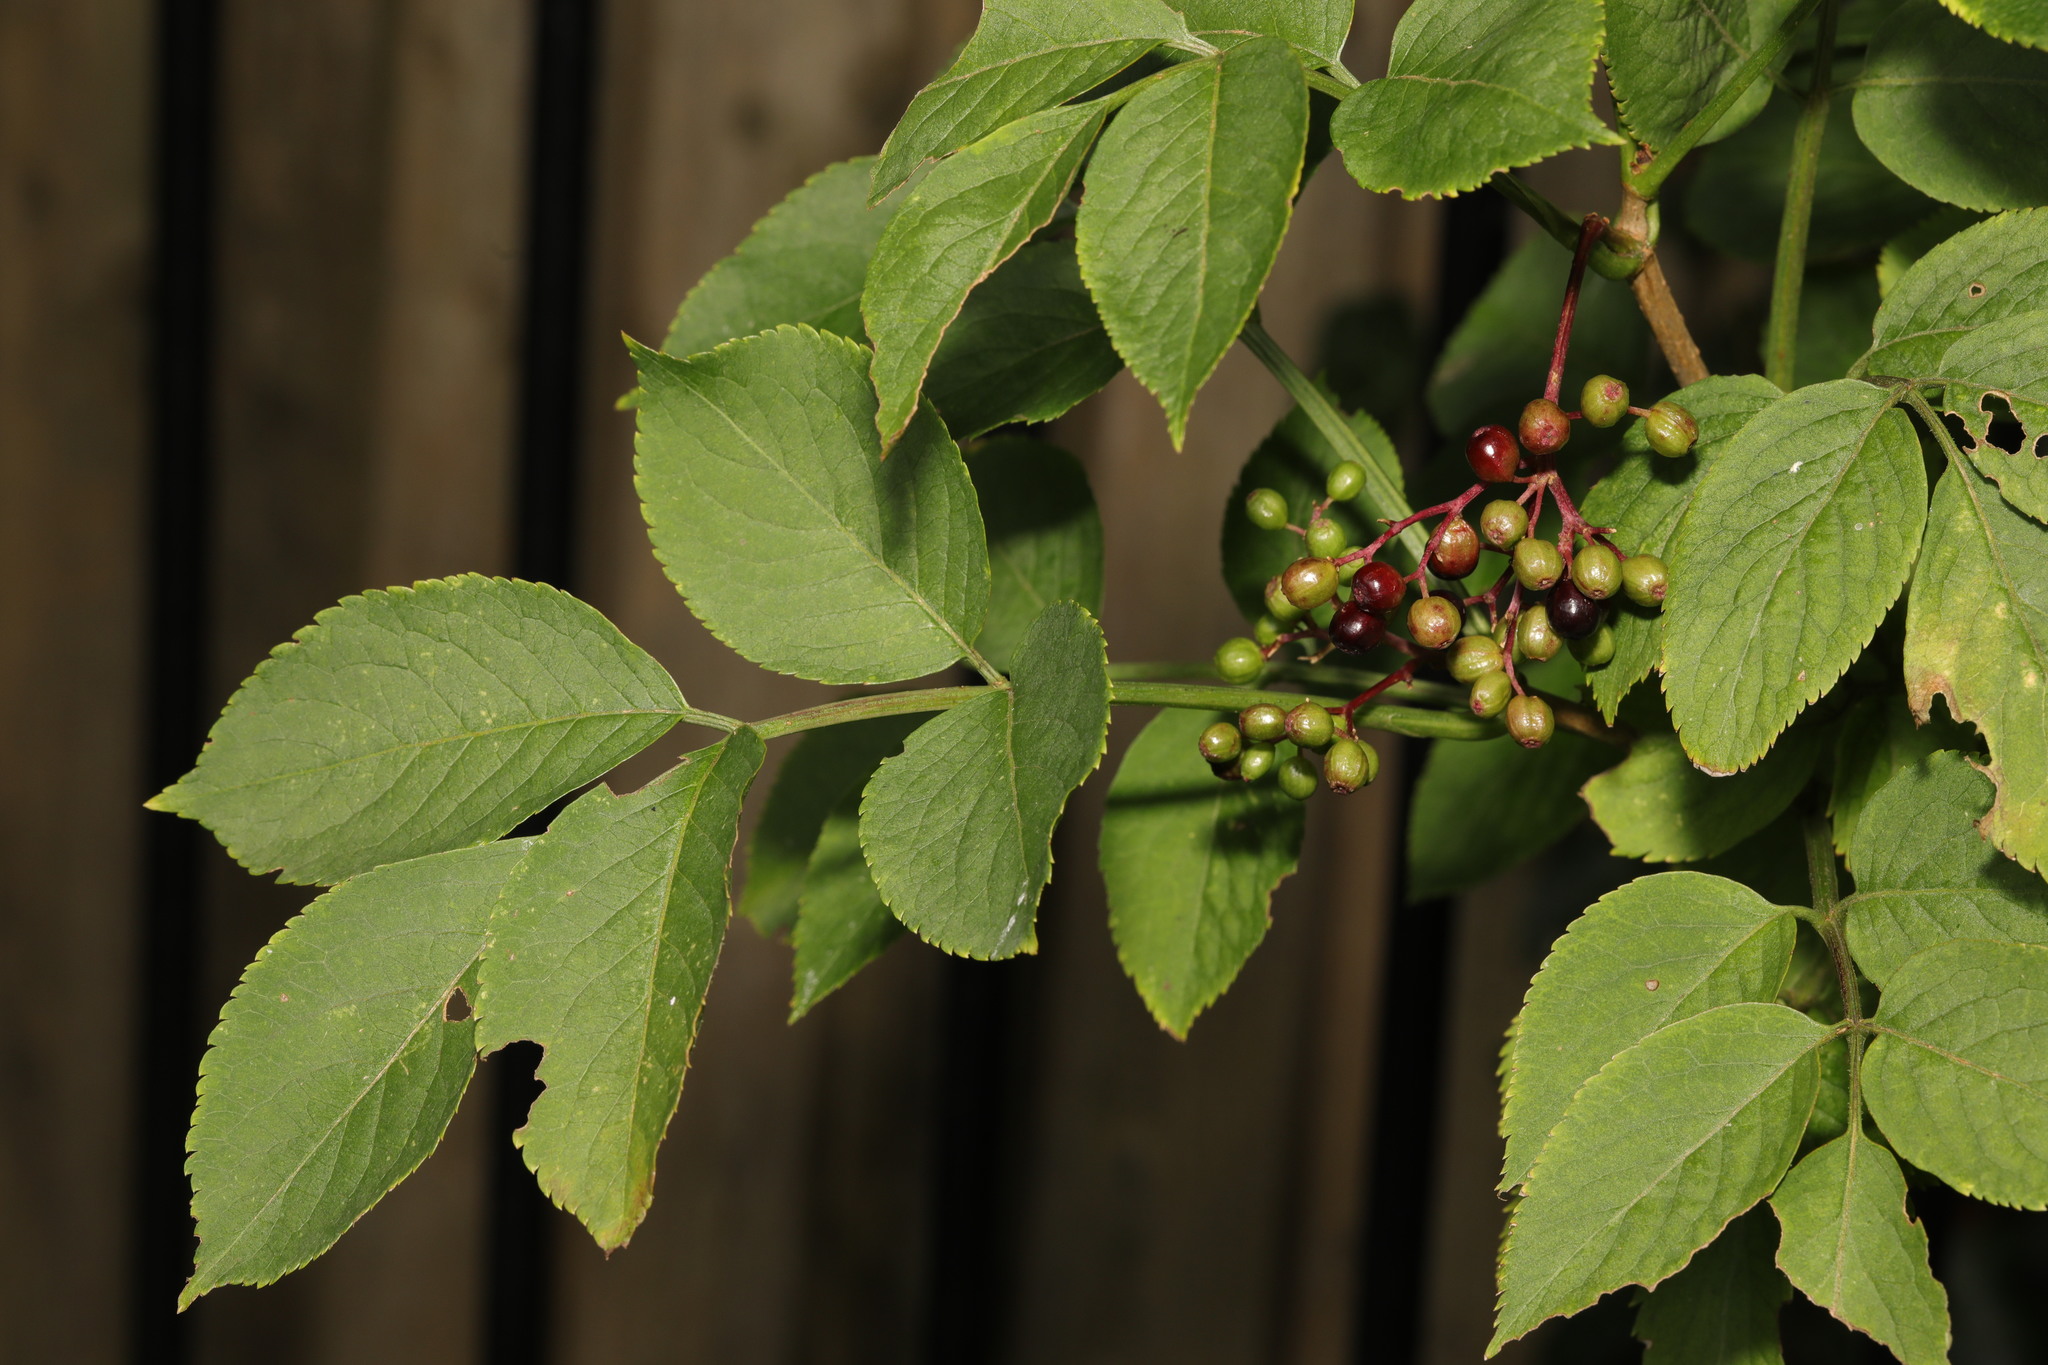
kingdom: Plantae
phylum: Tracheophyta
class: Magnoliopsida
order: Dipsacales
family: Viburnaceae
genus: Sambucus
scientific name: Sambucus nigra
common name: Elder
